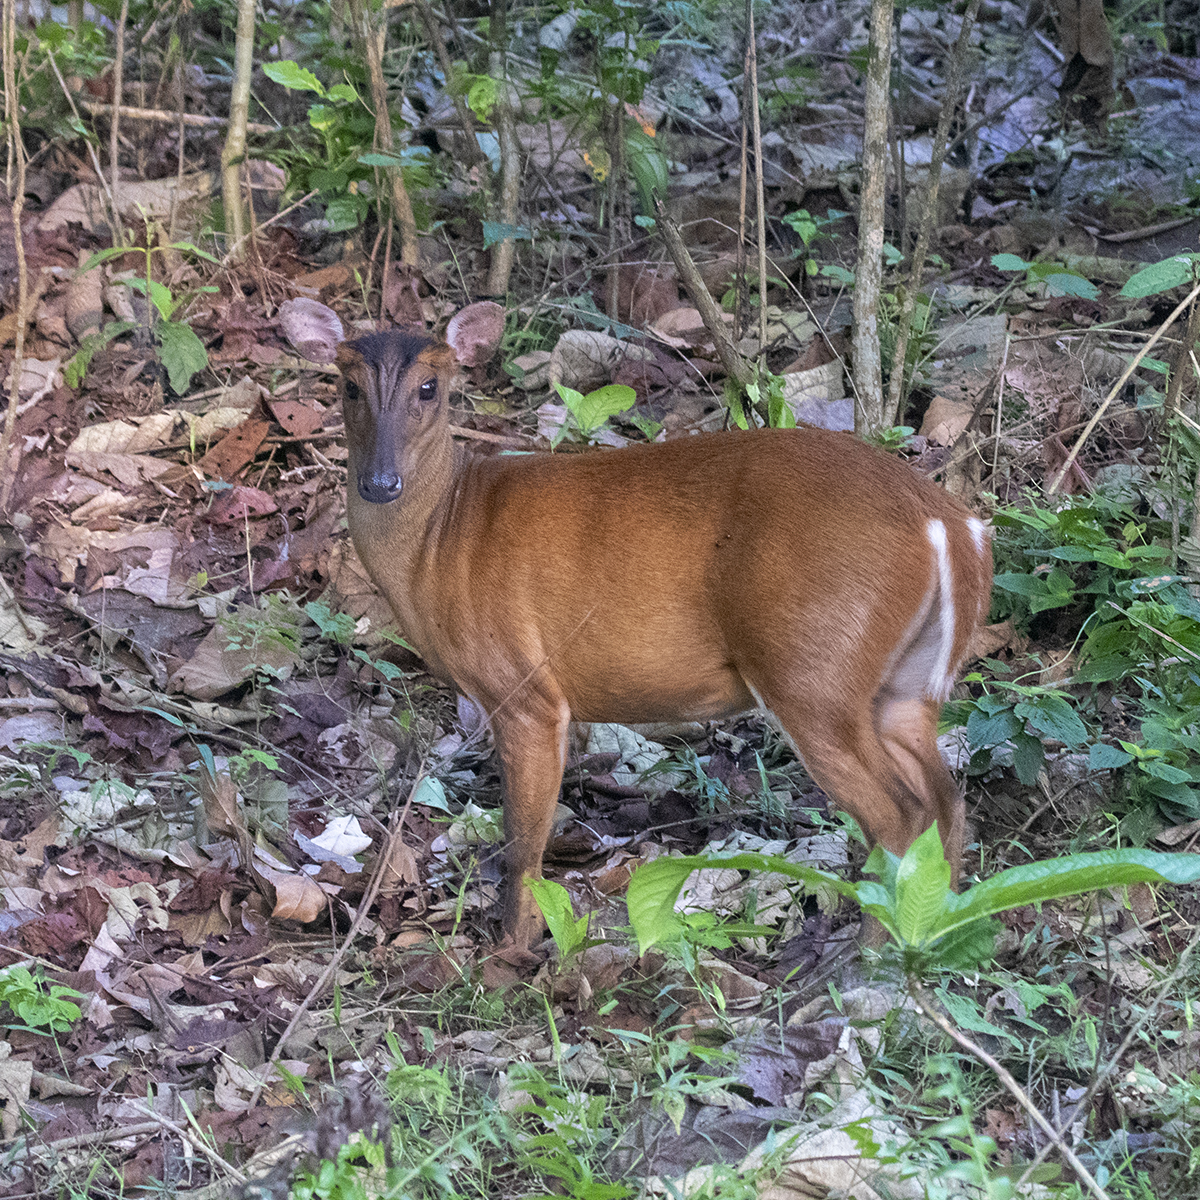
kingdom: Animalia
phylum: Chordata
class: Mammalia
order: Artiodactyla
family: Cervidae
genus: Muntiacus
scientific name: Muntiacus muntjak
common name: Indian muntjac
